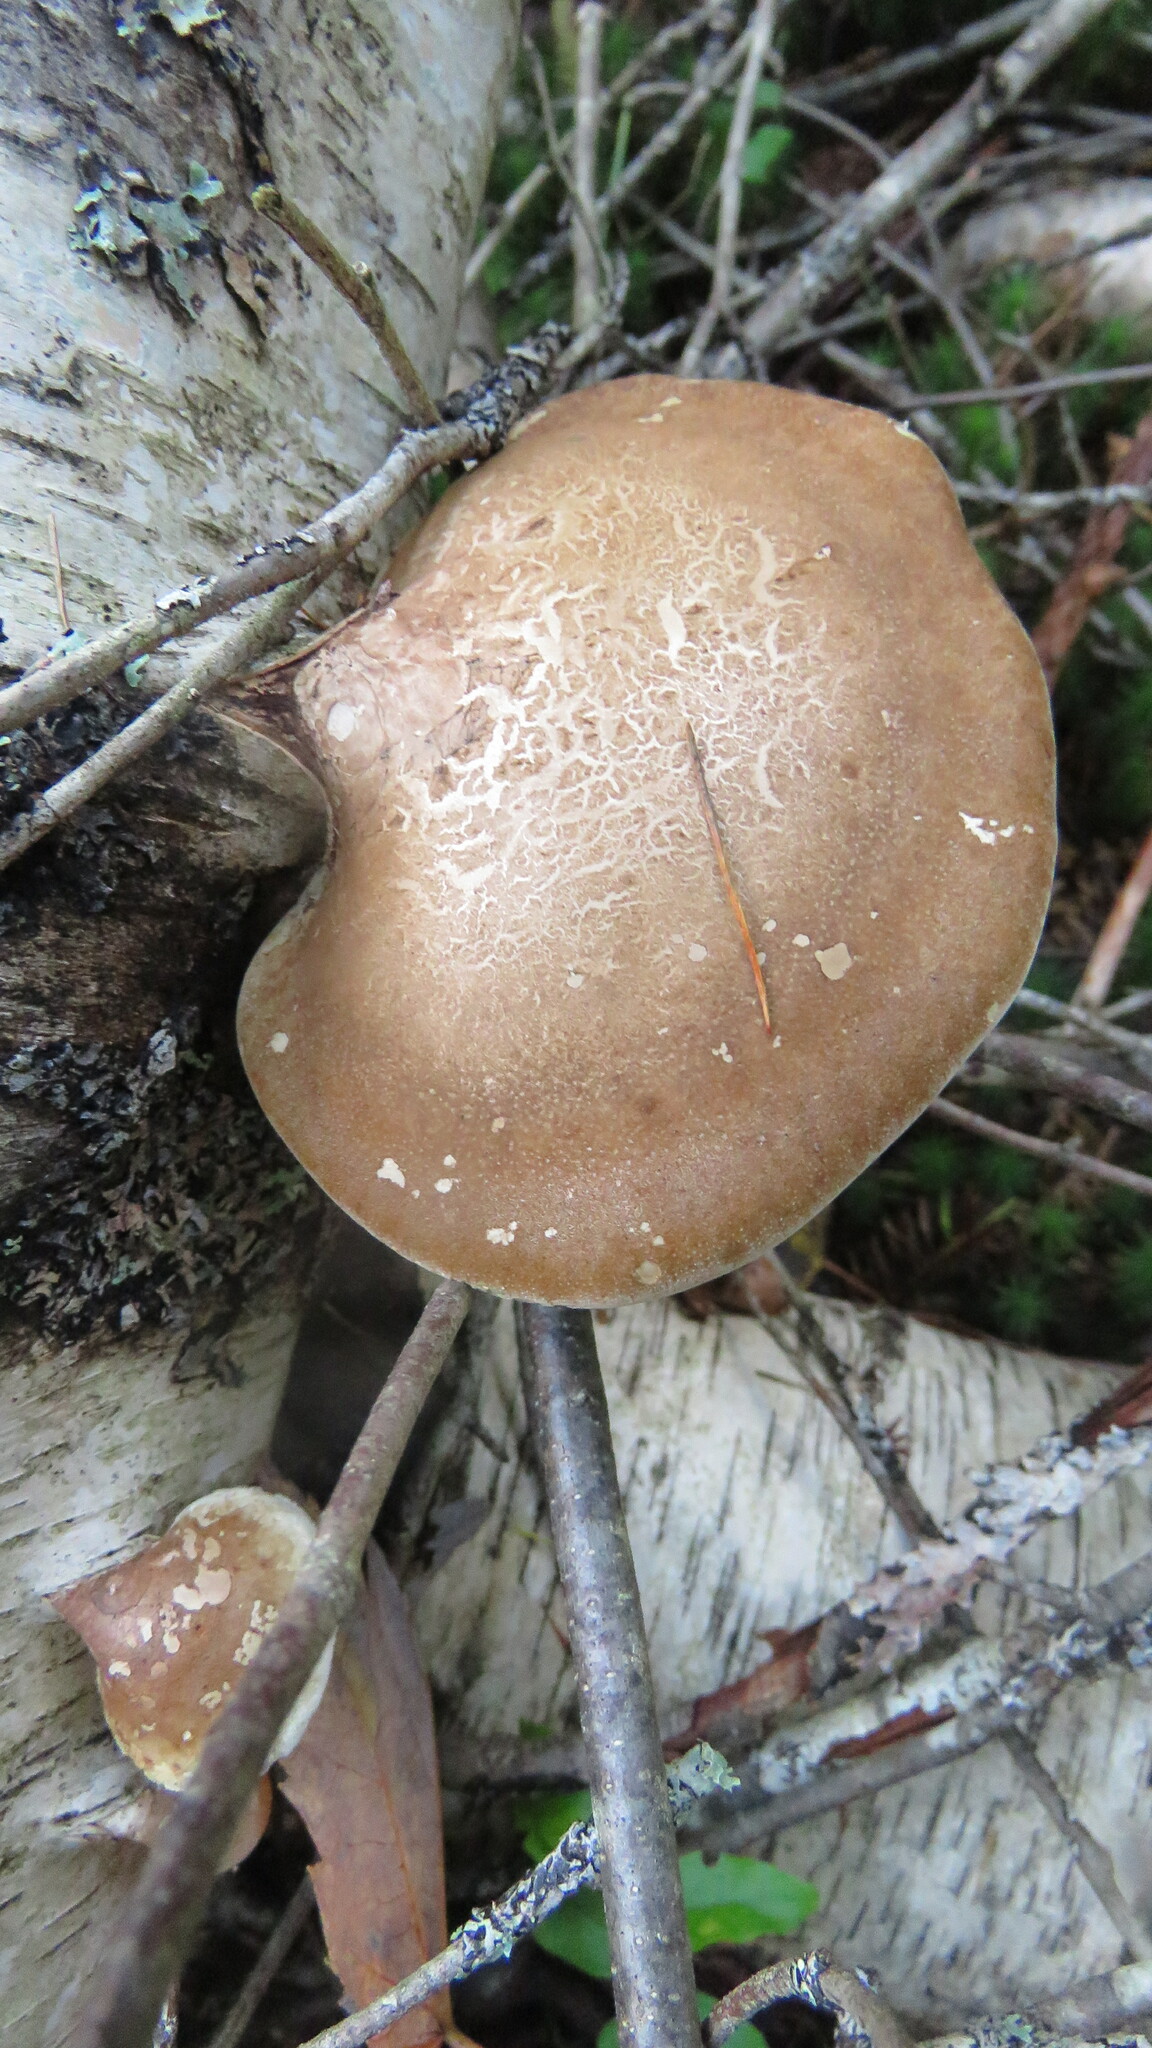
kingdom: Fungi
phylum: Basidiomycota
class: Agaricomycetes
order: Polyporales
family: Fomitopsidaceae
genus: Fomitopsis
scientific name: Fomitopsis betulina
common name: Birch polypore
